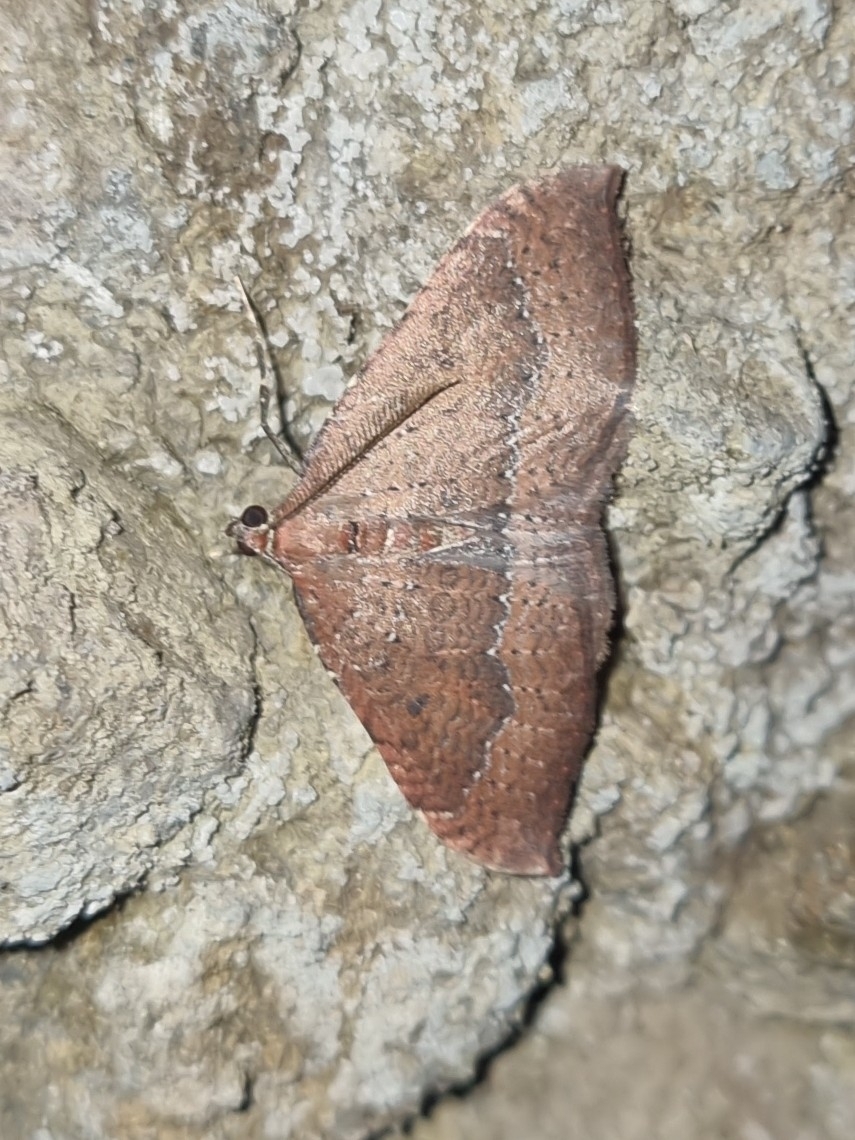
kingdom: Animalia
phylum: Arthropoda
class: Insecta
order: Lepidoptera
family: Geometridae
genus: Herbulotina
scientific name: Herbulotina maderae
